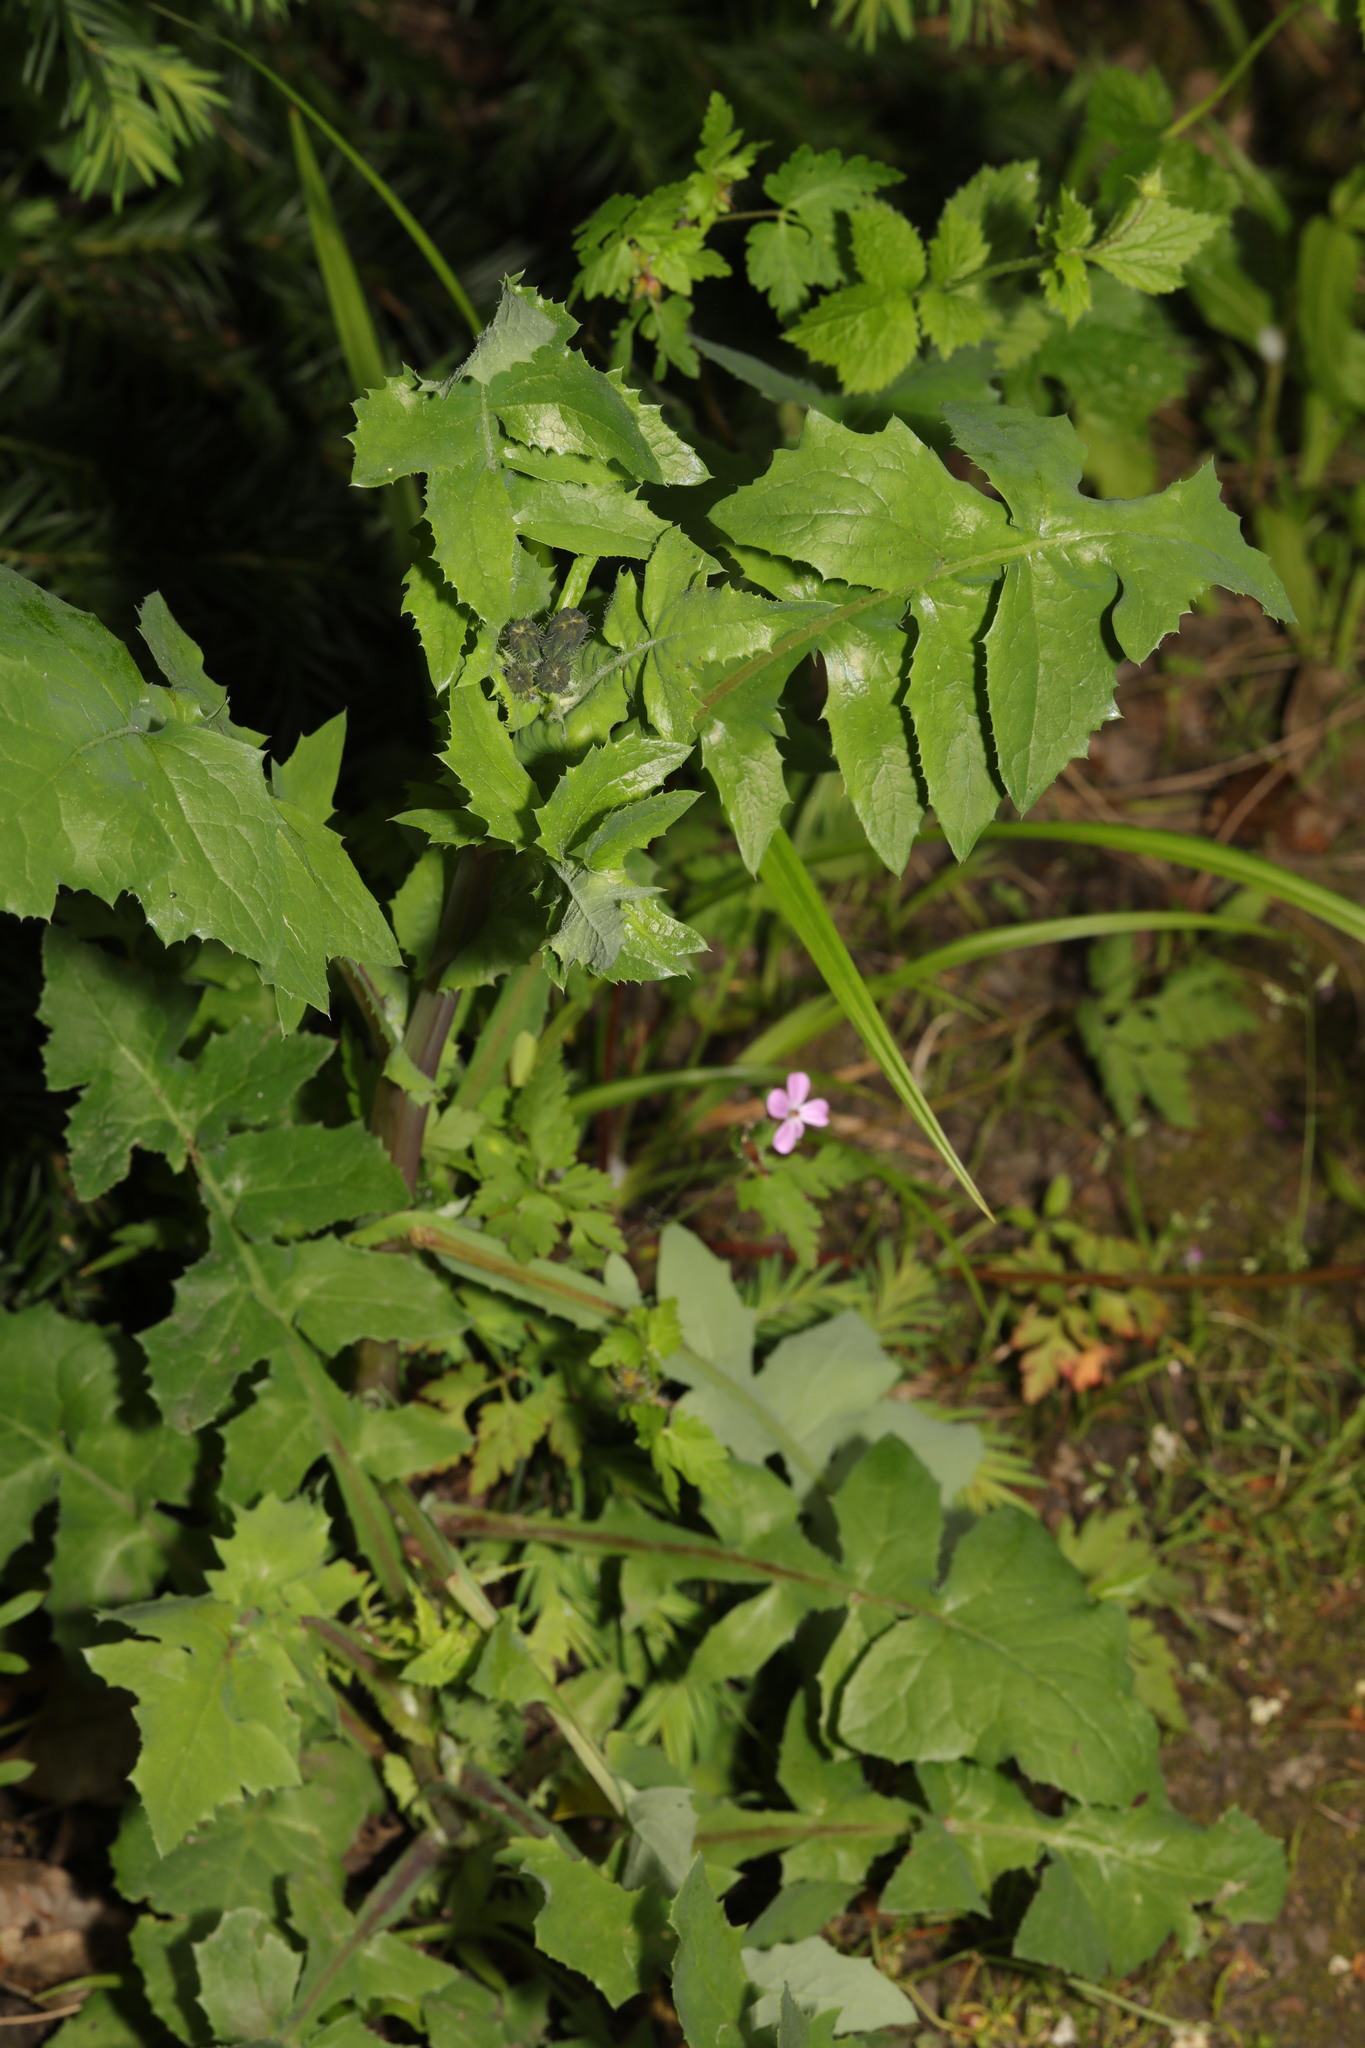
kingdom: Plantae
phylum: Tracheophyta
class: Magnoliopsida
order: Asterales
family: Asteraceae
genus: Sonchus
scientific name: Sonchus oleraceus
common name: Common sowthistle
